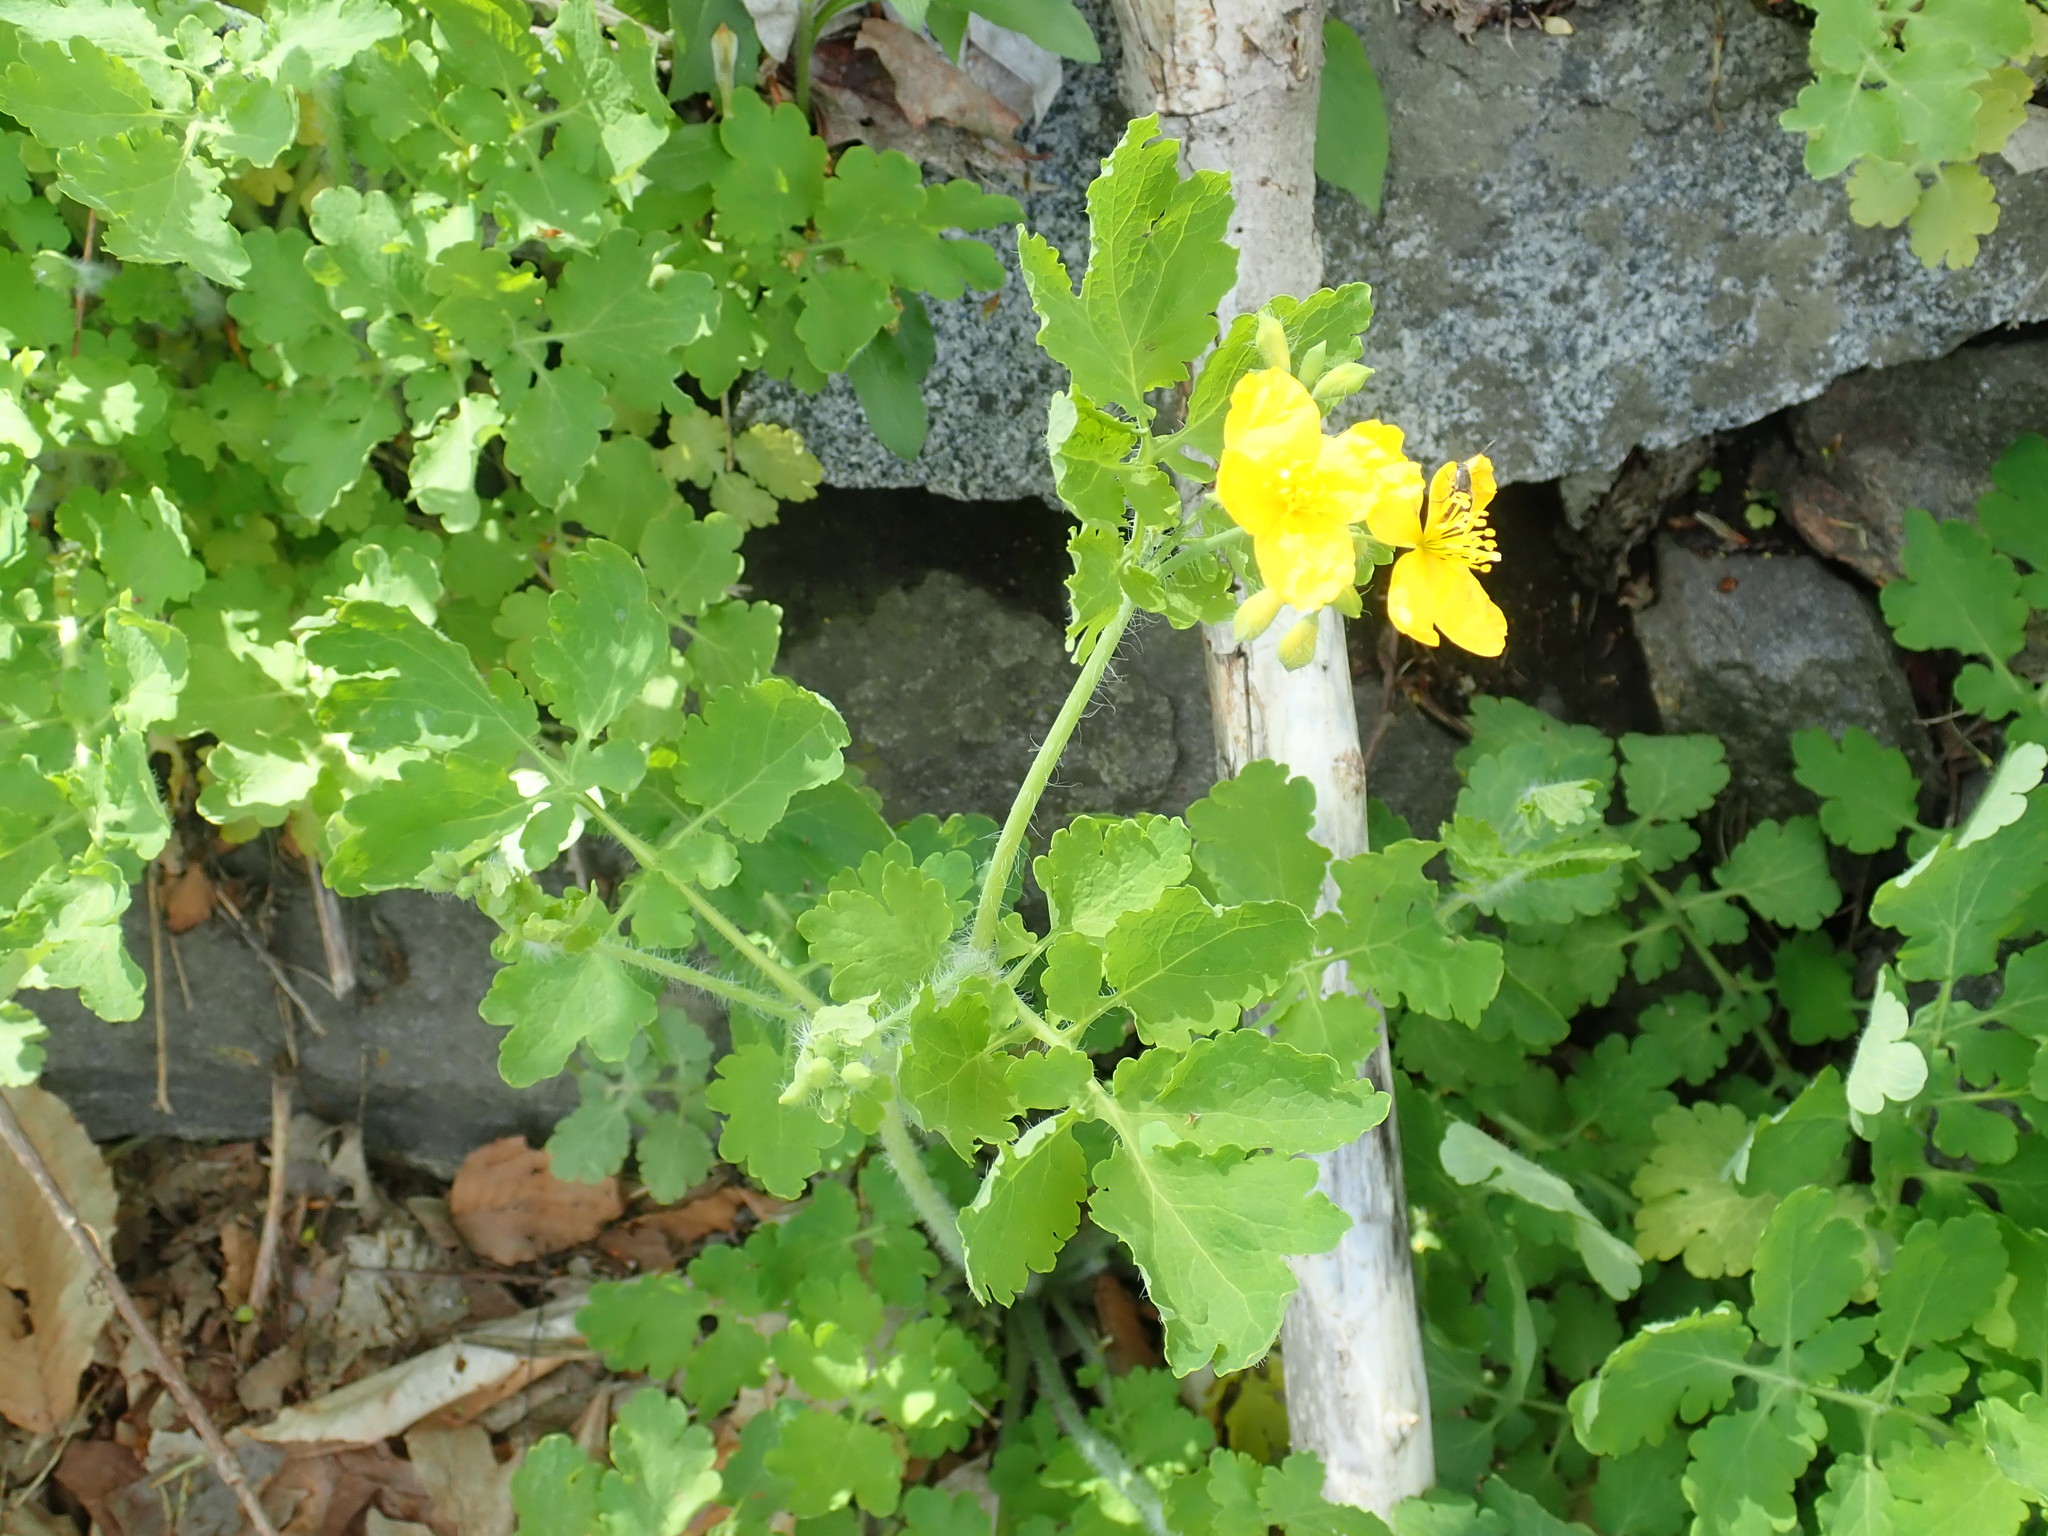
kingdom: Plantae
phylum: Tracheophyta
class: Magnoliopsida
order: Ranunculales
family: Papaveraceae
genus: Chelidonium
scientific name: Chelidonium majus
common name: Greater celandine
